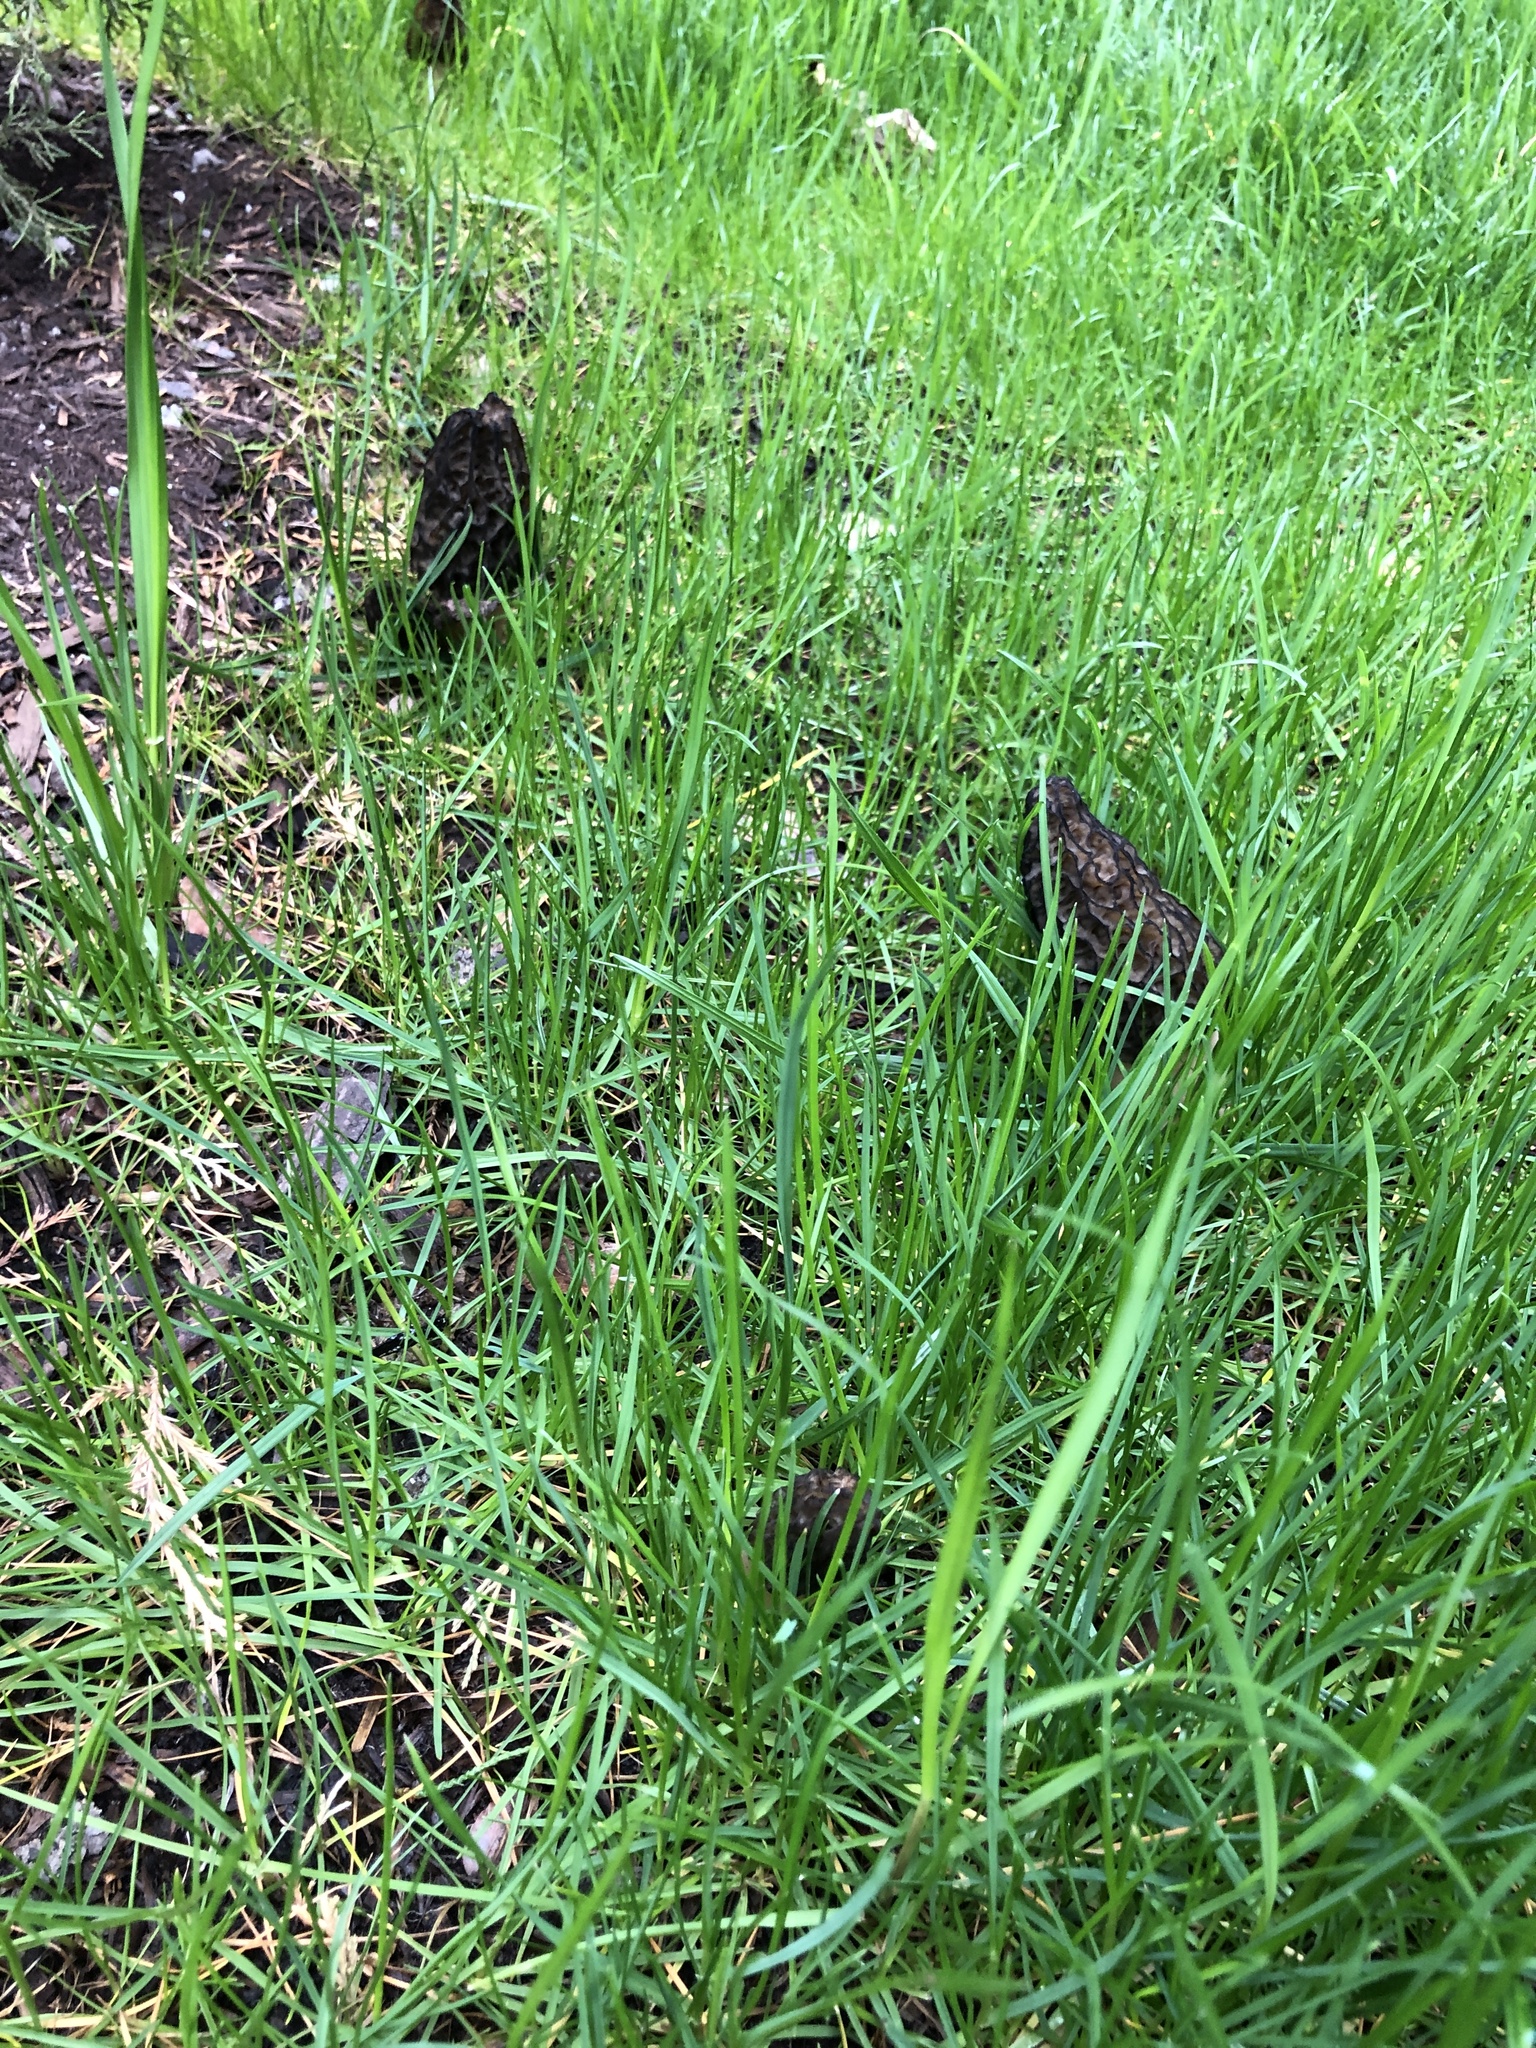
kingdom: Fungi
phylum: Ascomycota
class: Pezizomycetes
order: Pezizales
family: Morchellaceae
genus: Morchella
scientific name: Morchella angusticeps
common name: Black morel
